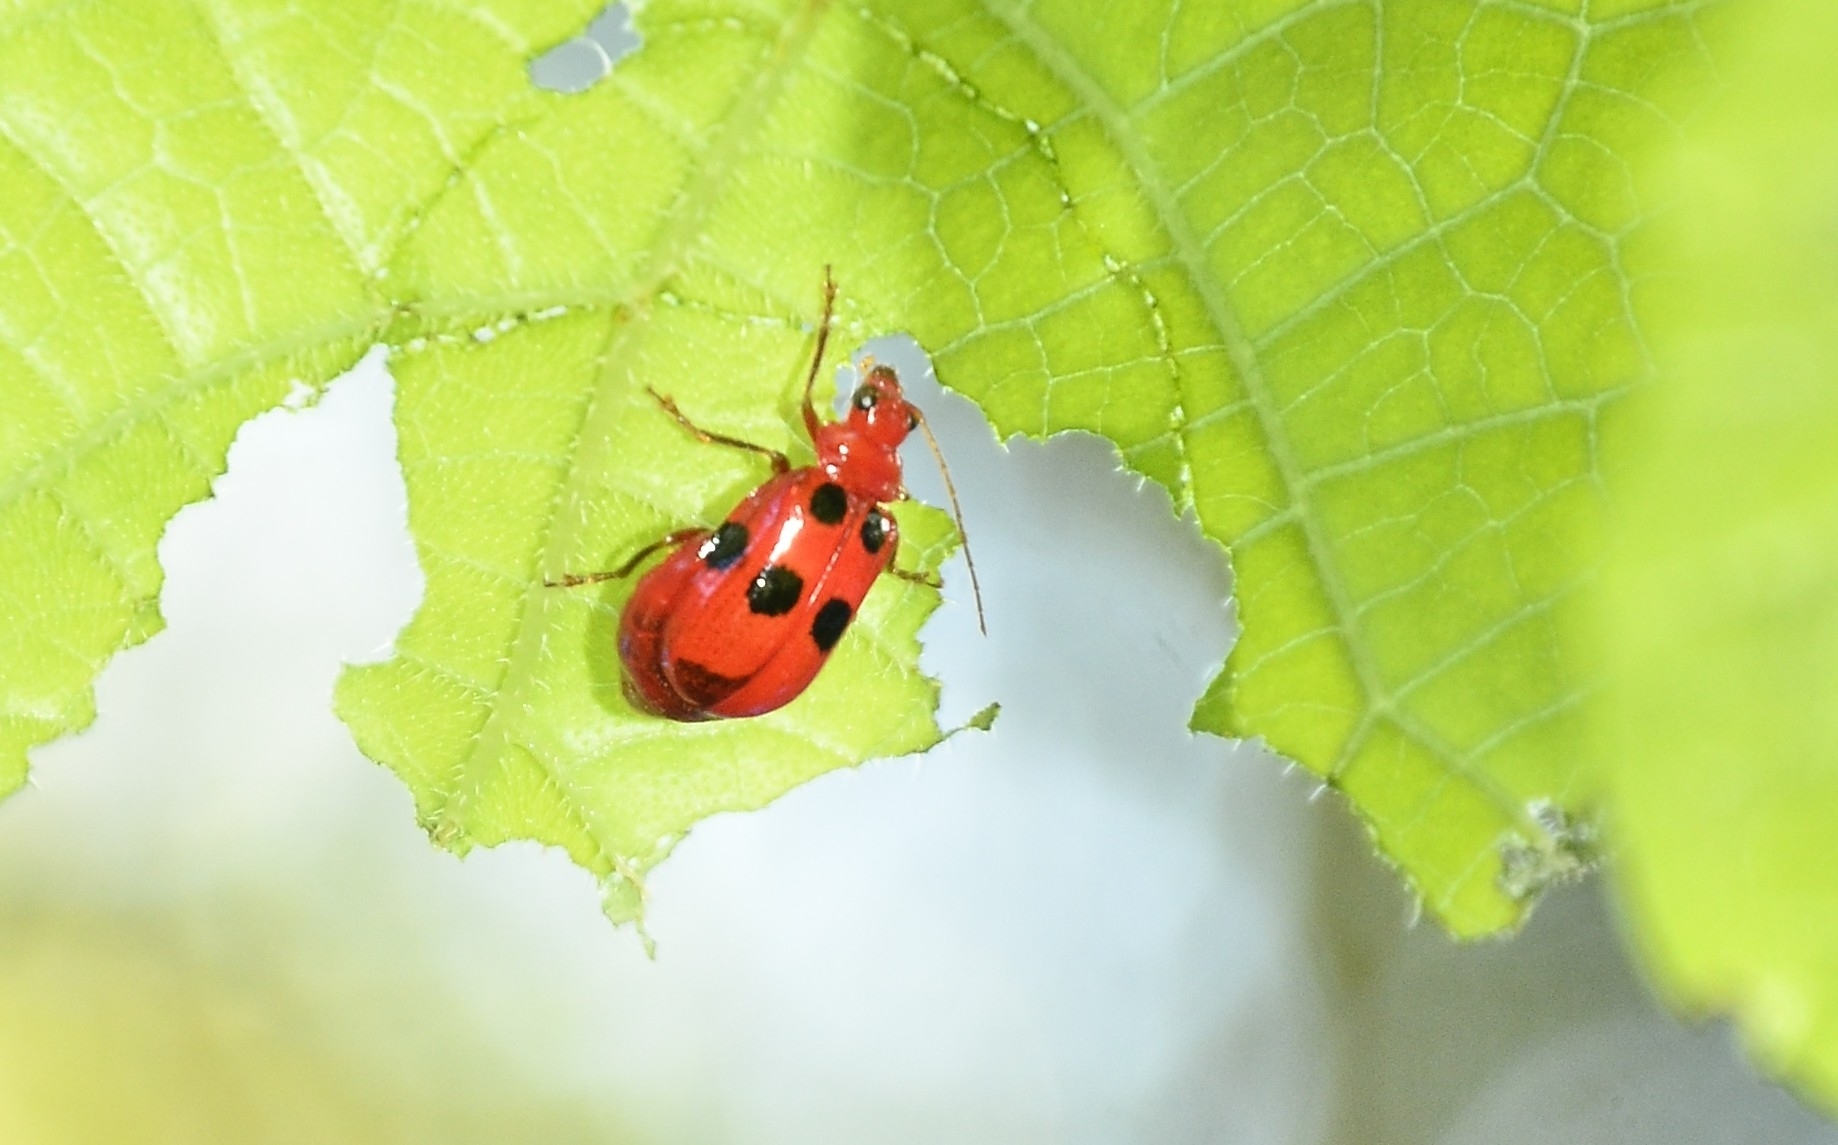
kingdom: Animalia
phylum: Arthropoda
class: Insecta
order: Coleoptera
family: Chrysomelidae
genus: Aulacophora
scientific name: Aulacophora
